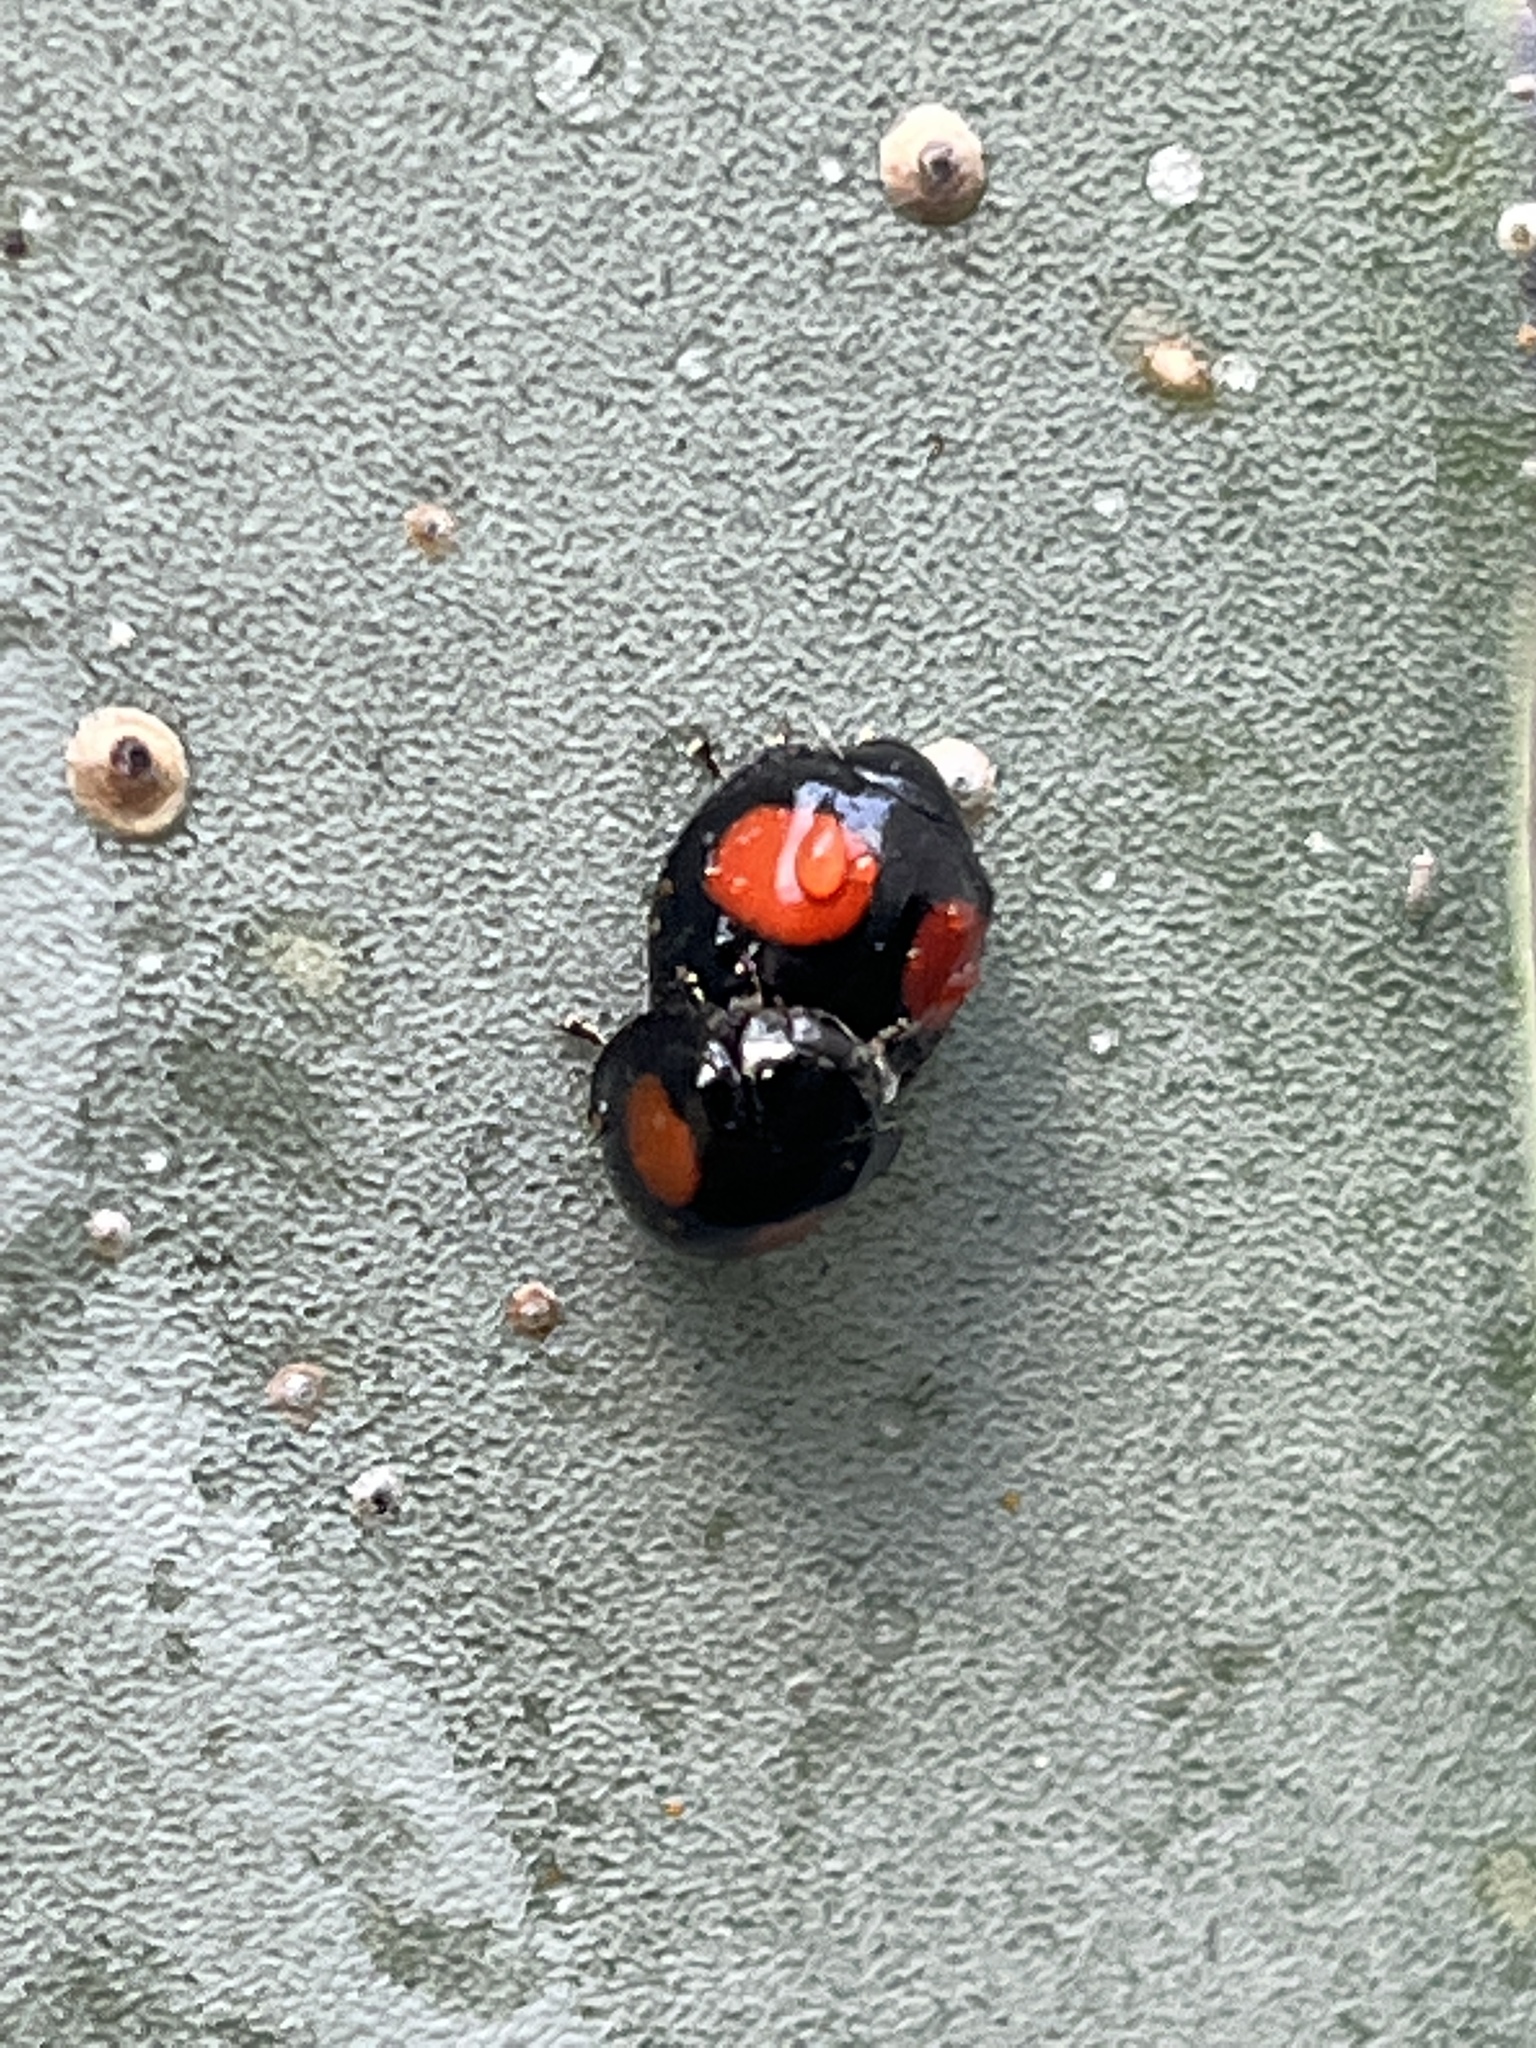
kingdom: Animalia
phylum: Arthropoda
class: Insecta
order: Coleoptera
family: Coccinellidae
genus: Chilocorus
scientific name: Chilocorus cacti
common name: Cactus lady beetle
